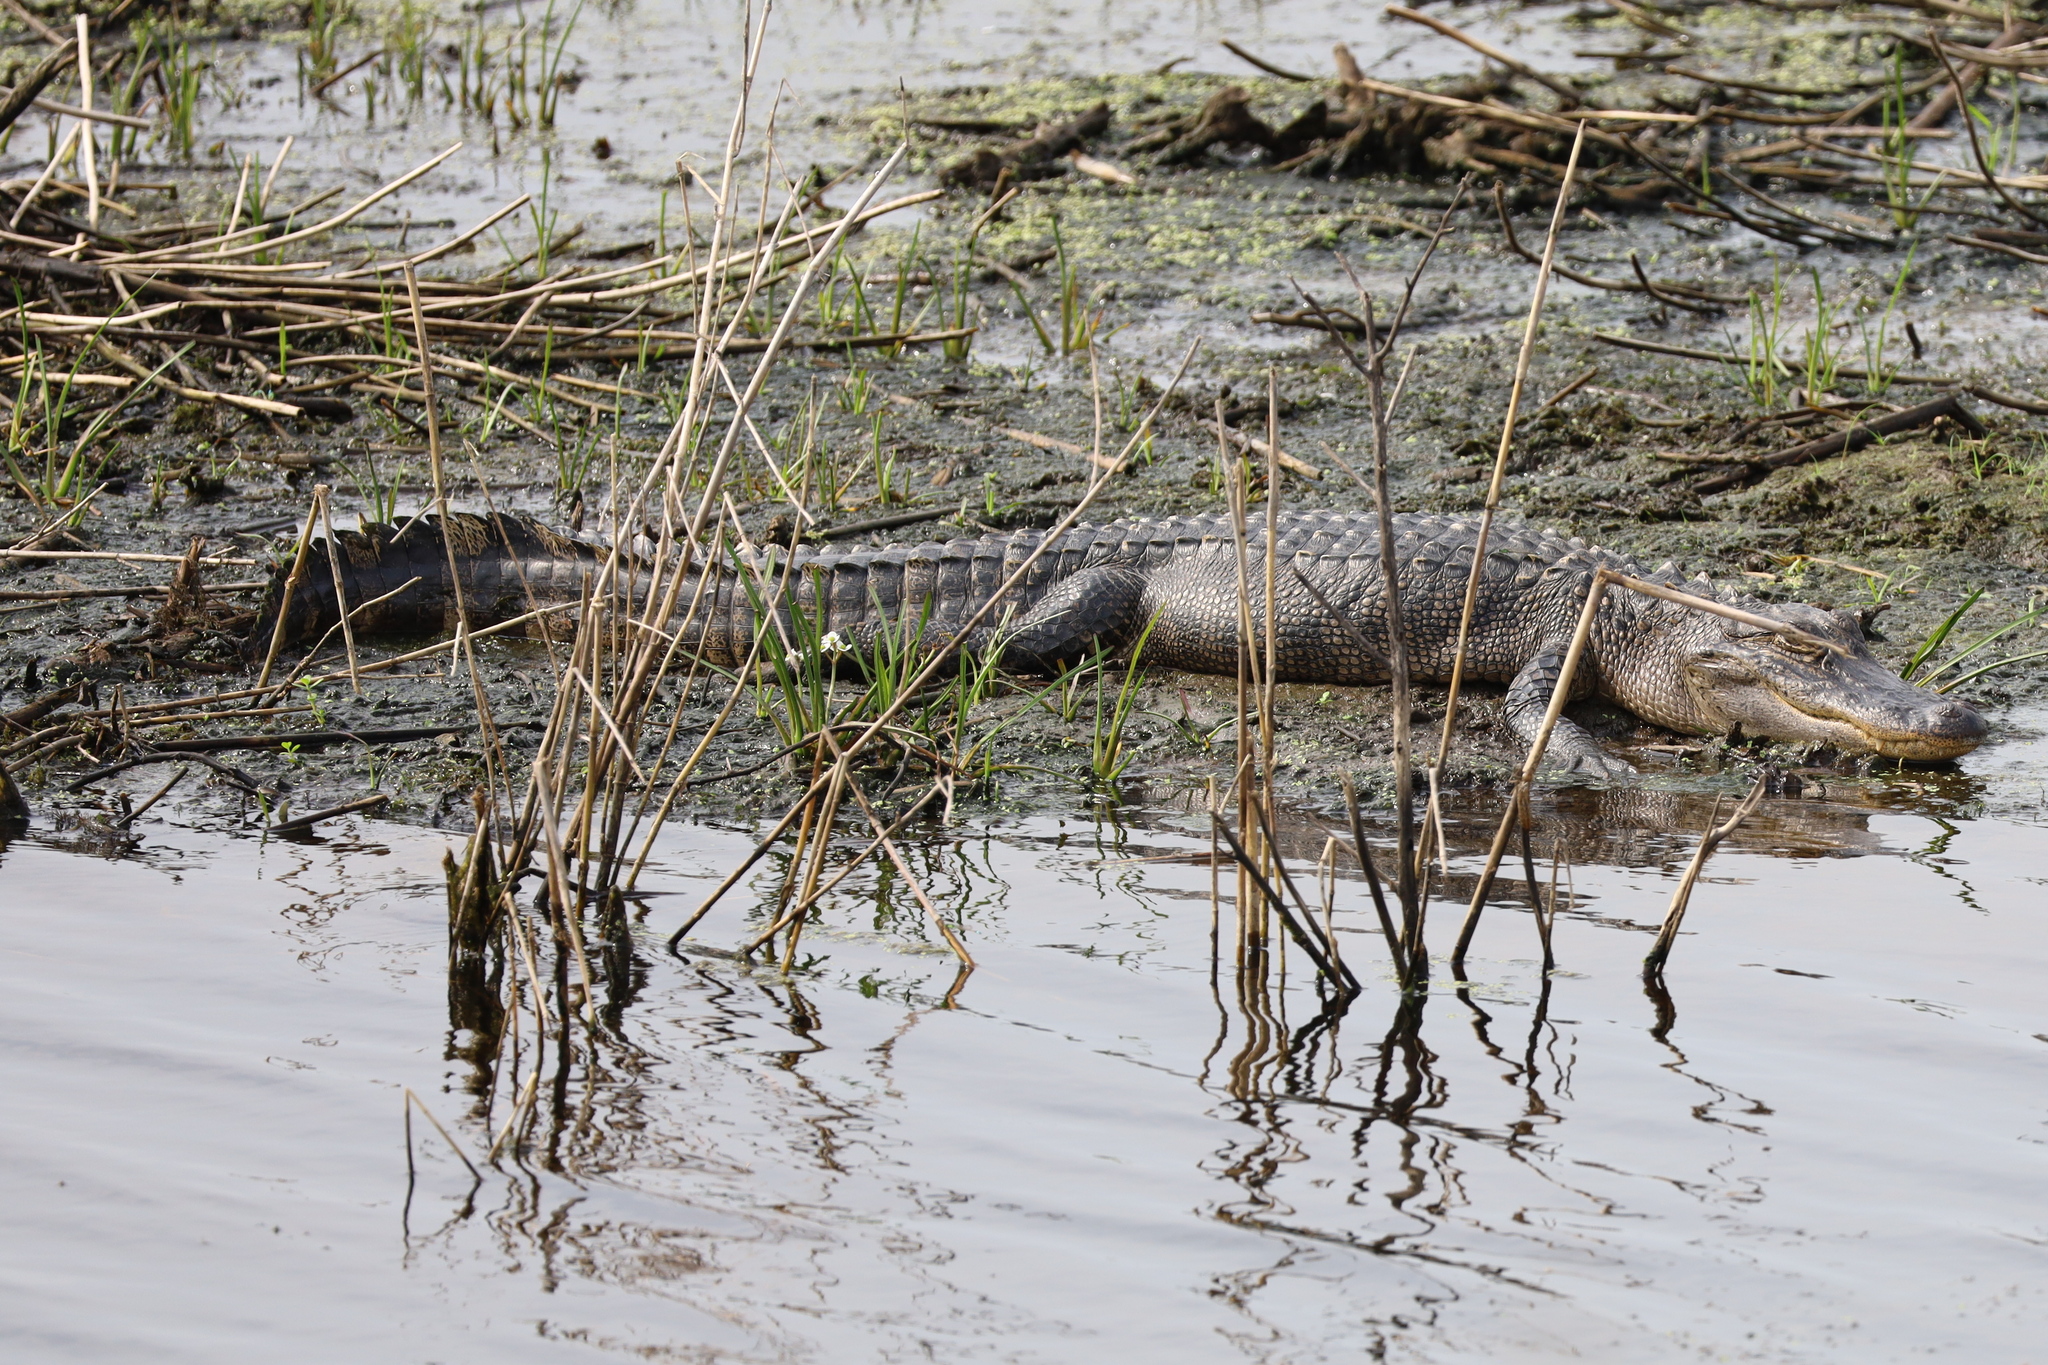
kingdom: Animalia
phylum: Chordata
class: Crocodylia
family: Alligatoridae
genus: Alligator
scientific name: Alligator mississippiensis
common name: American alligator
